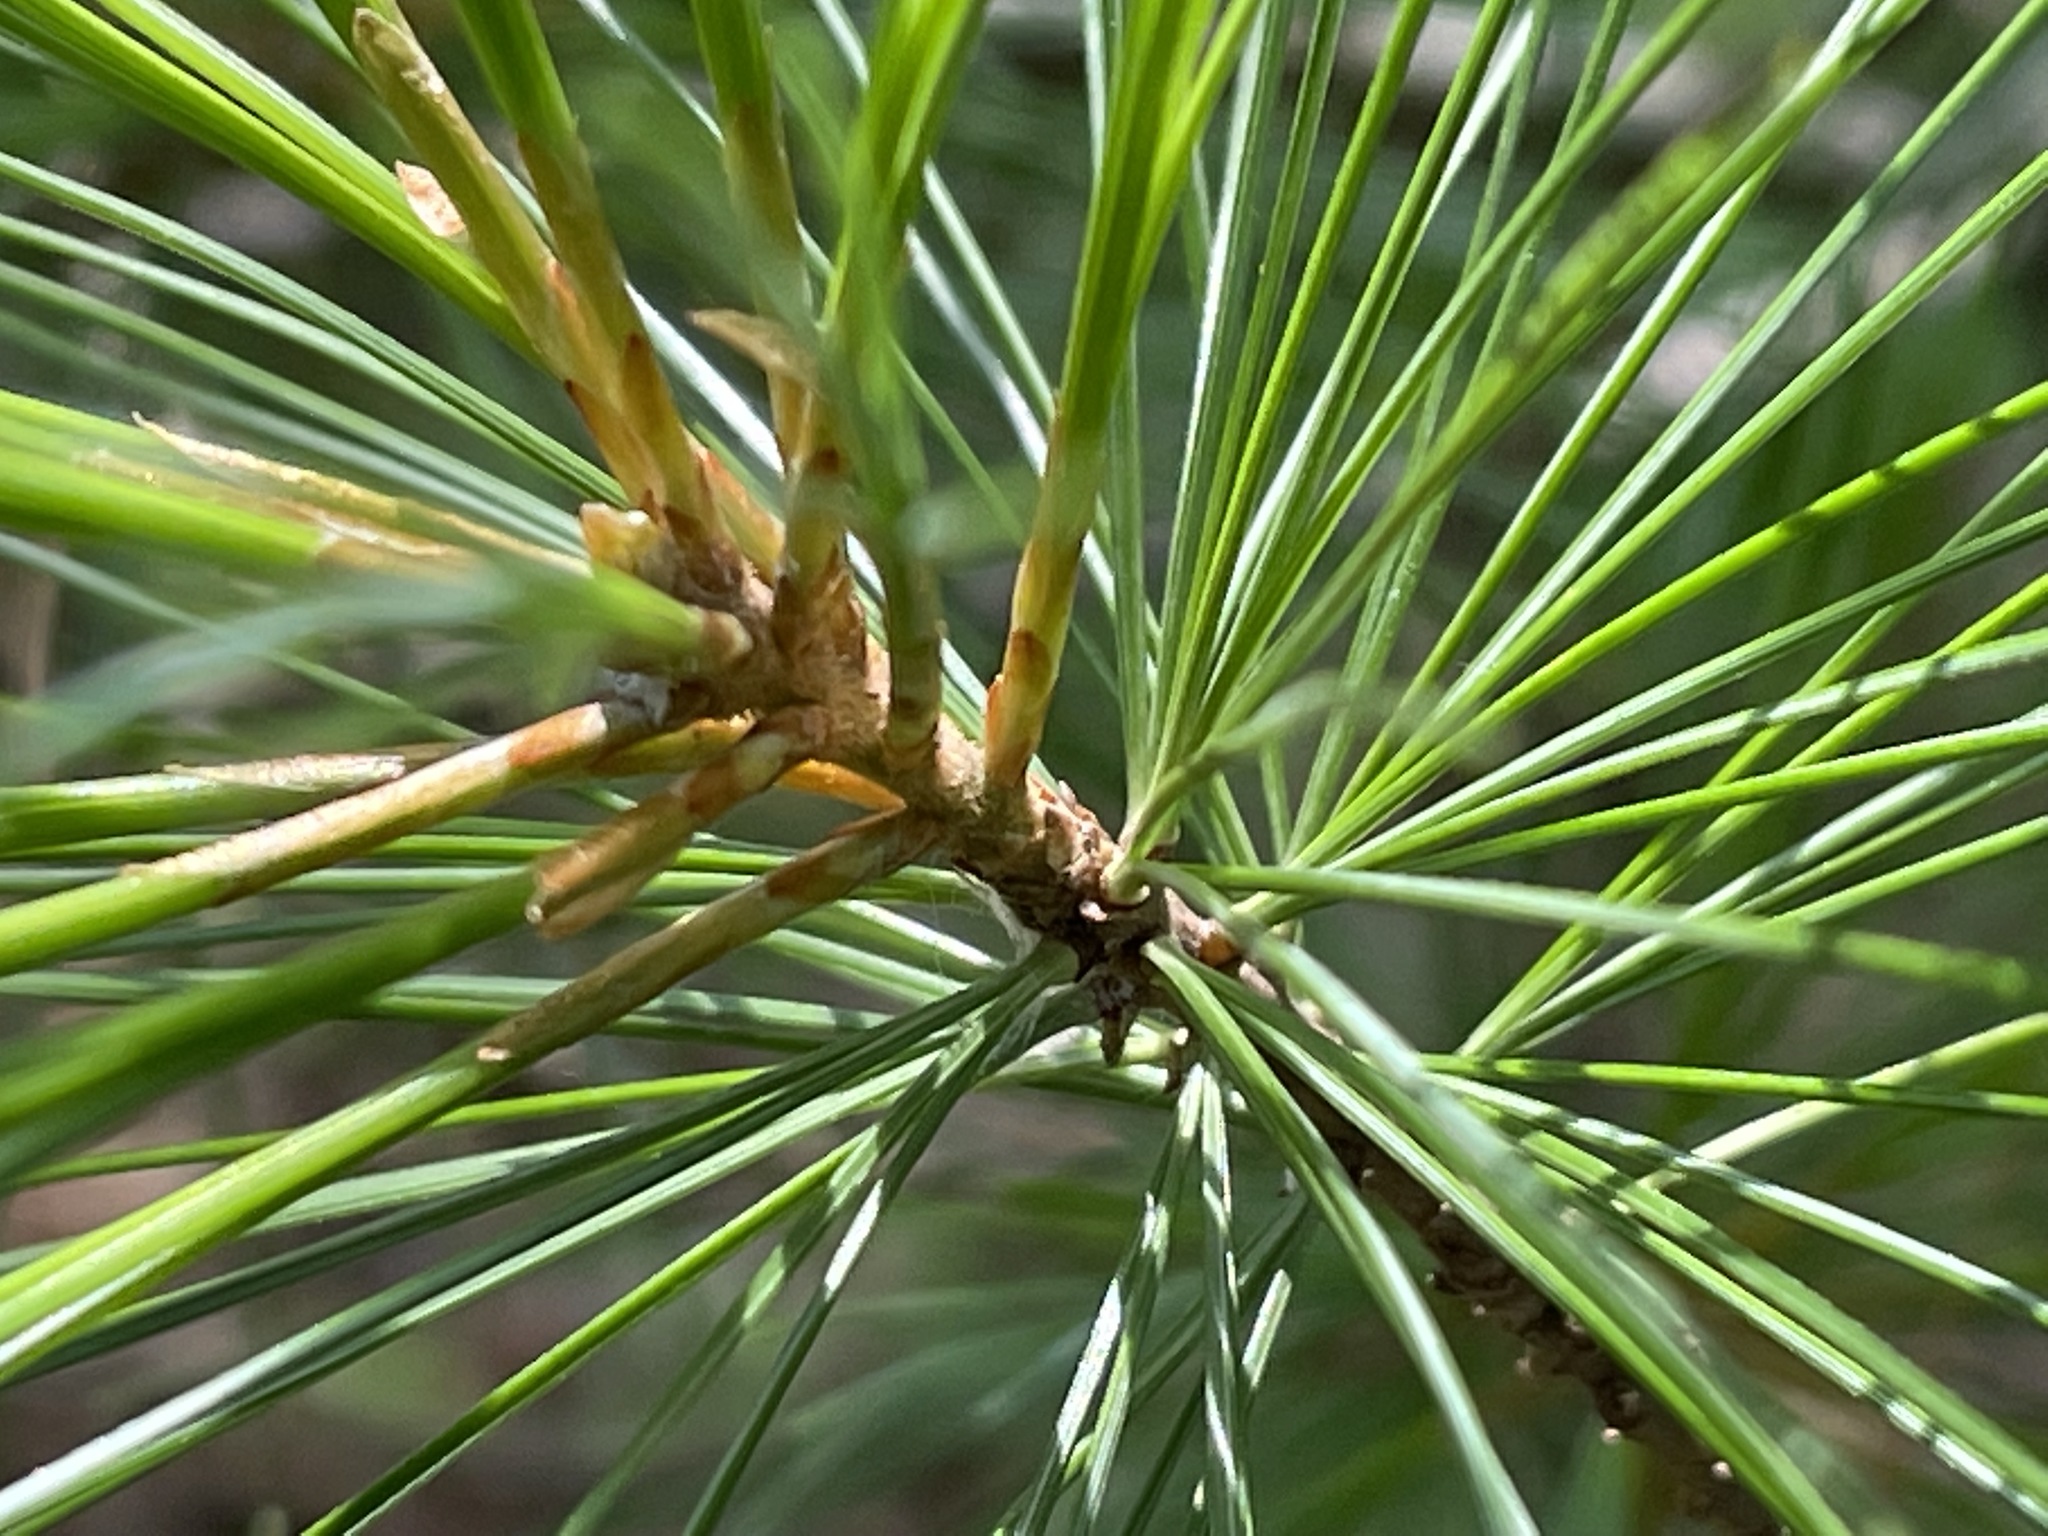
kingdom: Plantae
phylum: Tracheophyta
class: Pinopsida
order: Pinales
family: Pinaceae
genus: Pinus
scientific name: Pinus strobus
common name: Weymouth pine
